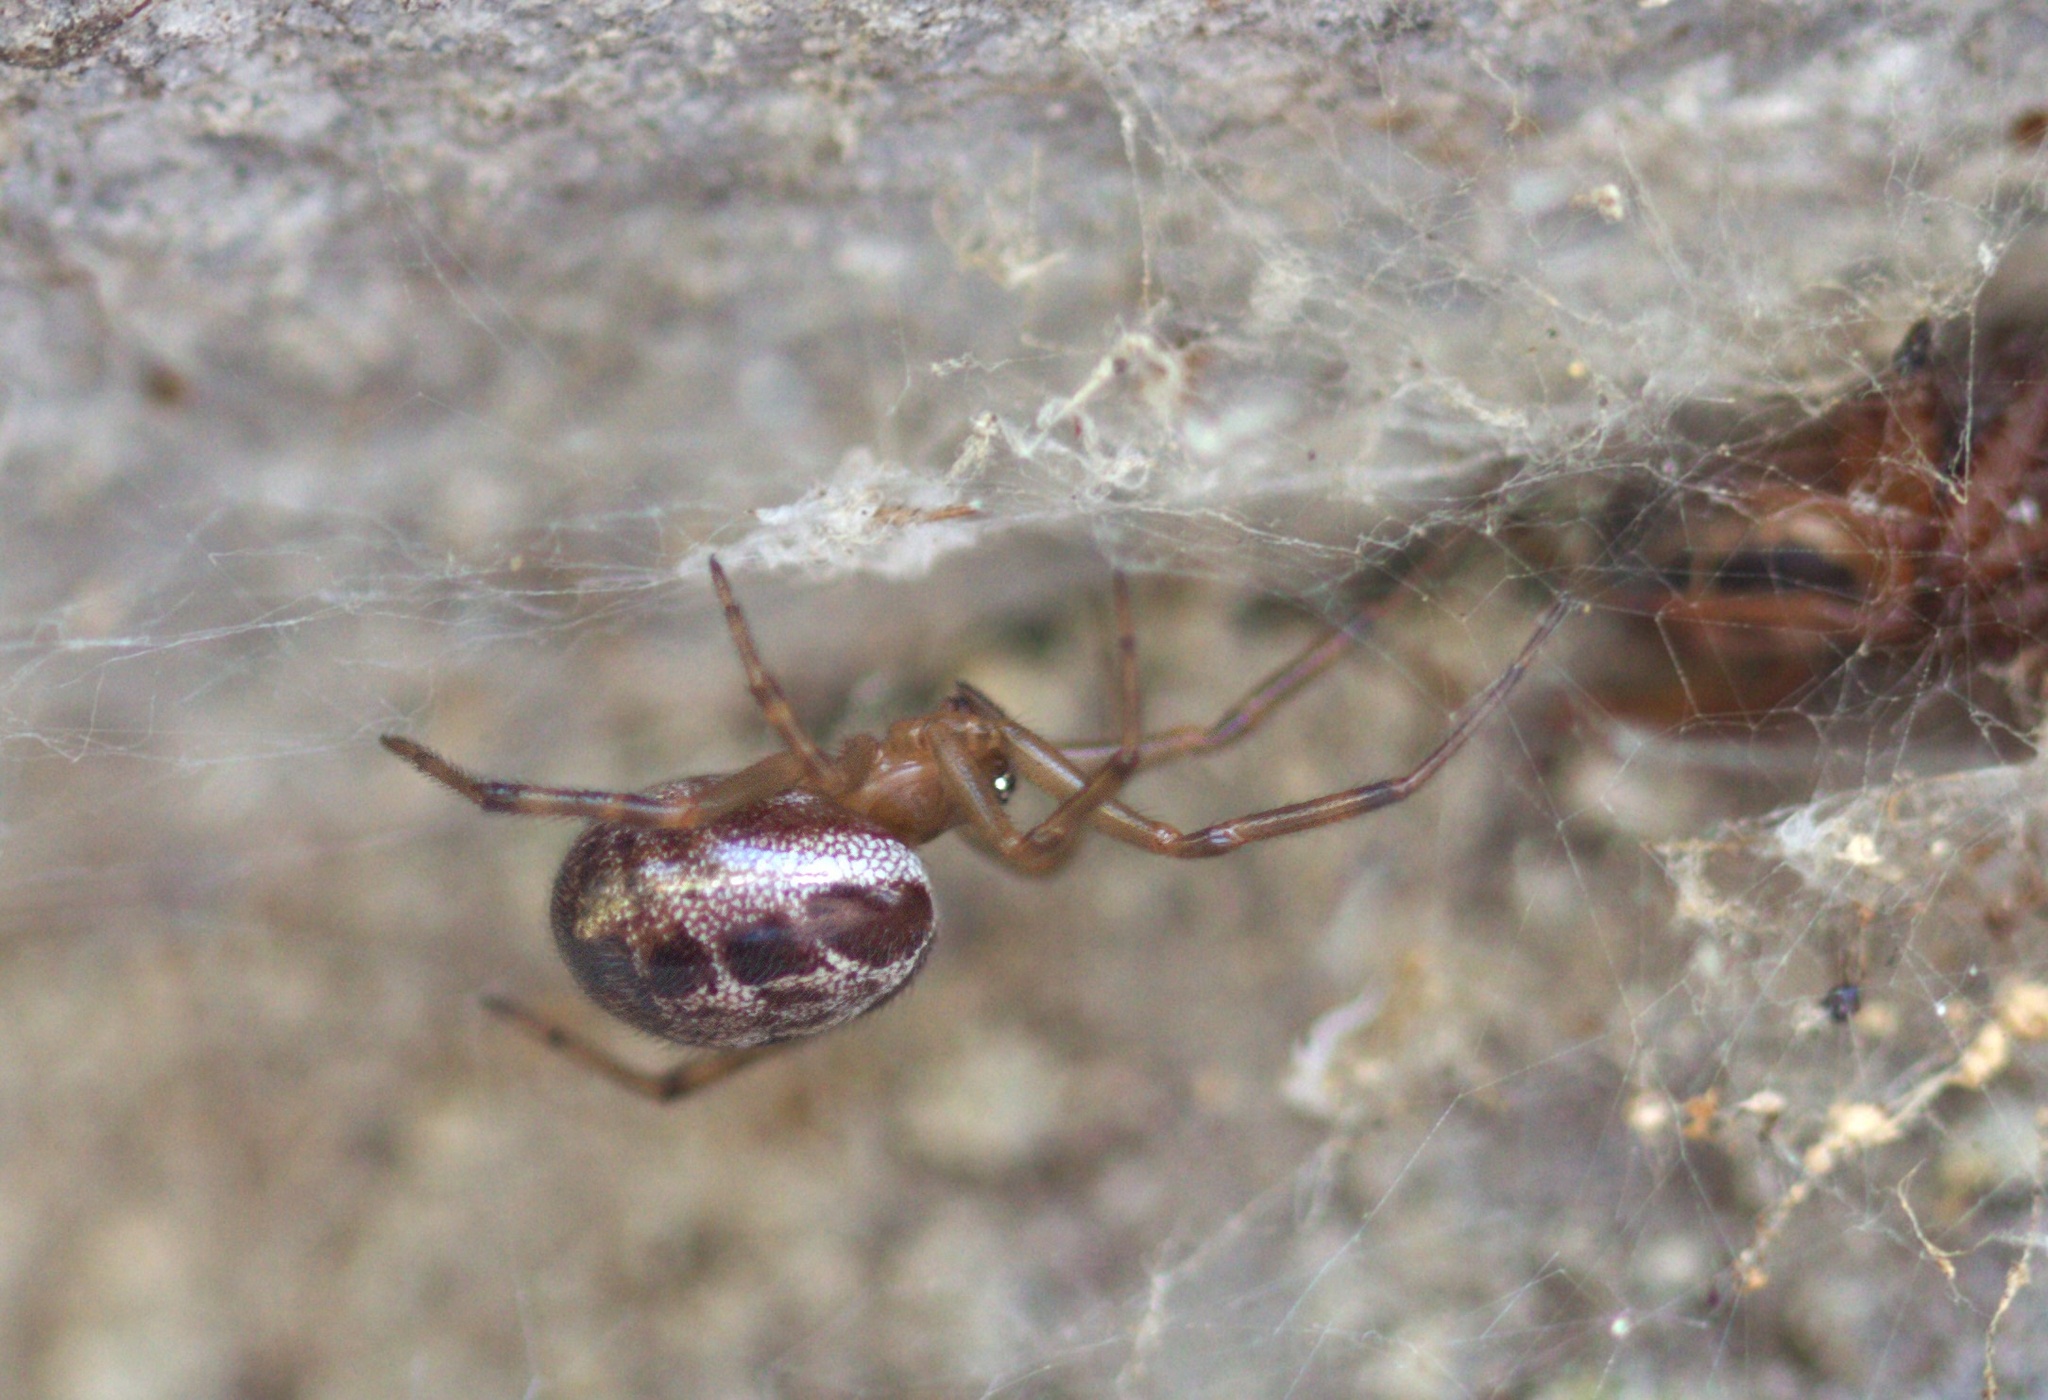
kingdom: Animalia
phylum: Arthropoda
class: Arachnida
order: Araneae
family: Theridiidae
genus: Steatoda
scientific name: Steatoda nobilis
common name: Cobweb weaver
